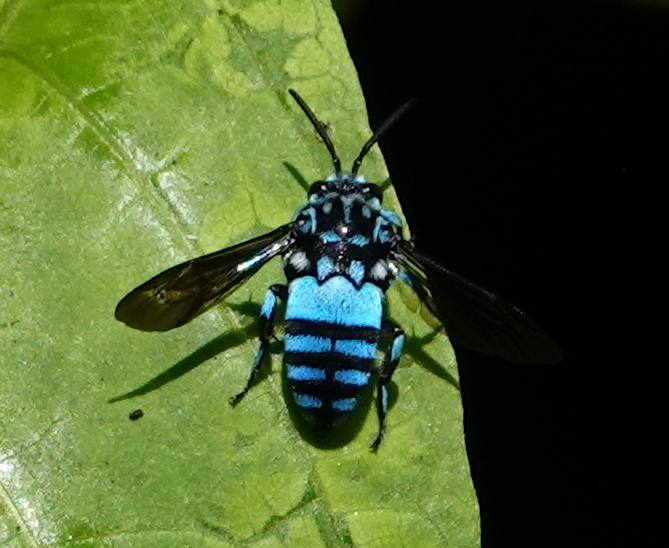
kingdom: Animalia
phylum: Arthropoda
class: Insecta
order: Hymenoptera
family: Apidae
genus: Thyreus
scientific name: Thyreus abdominalis
